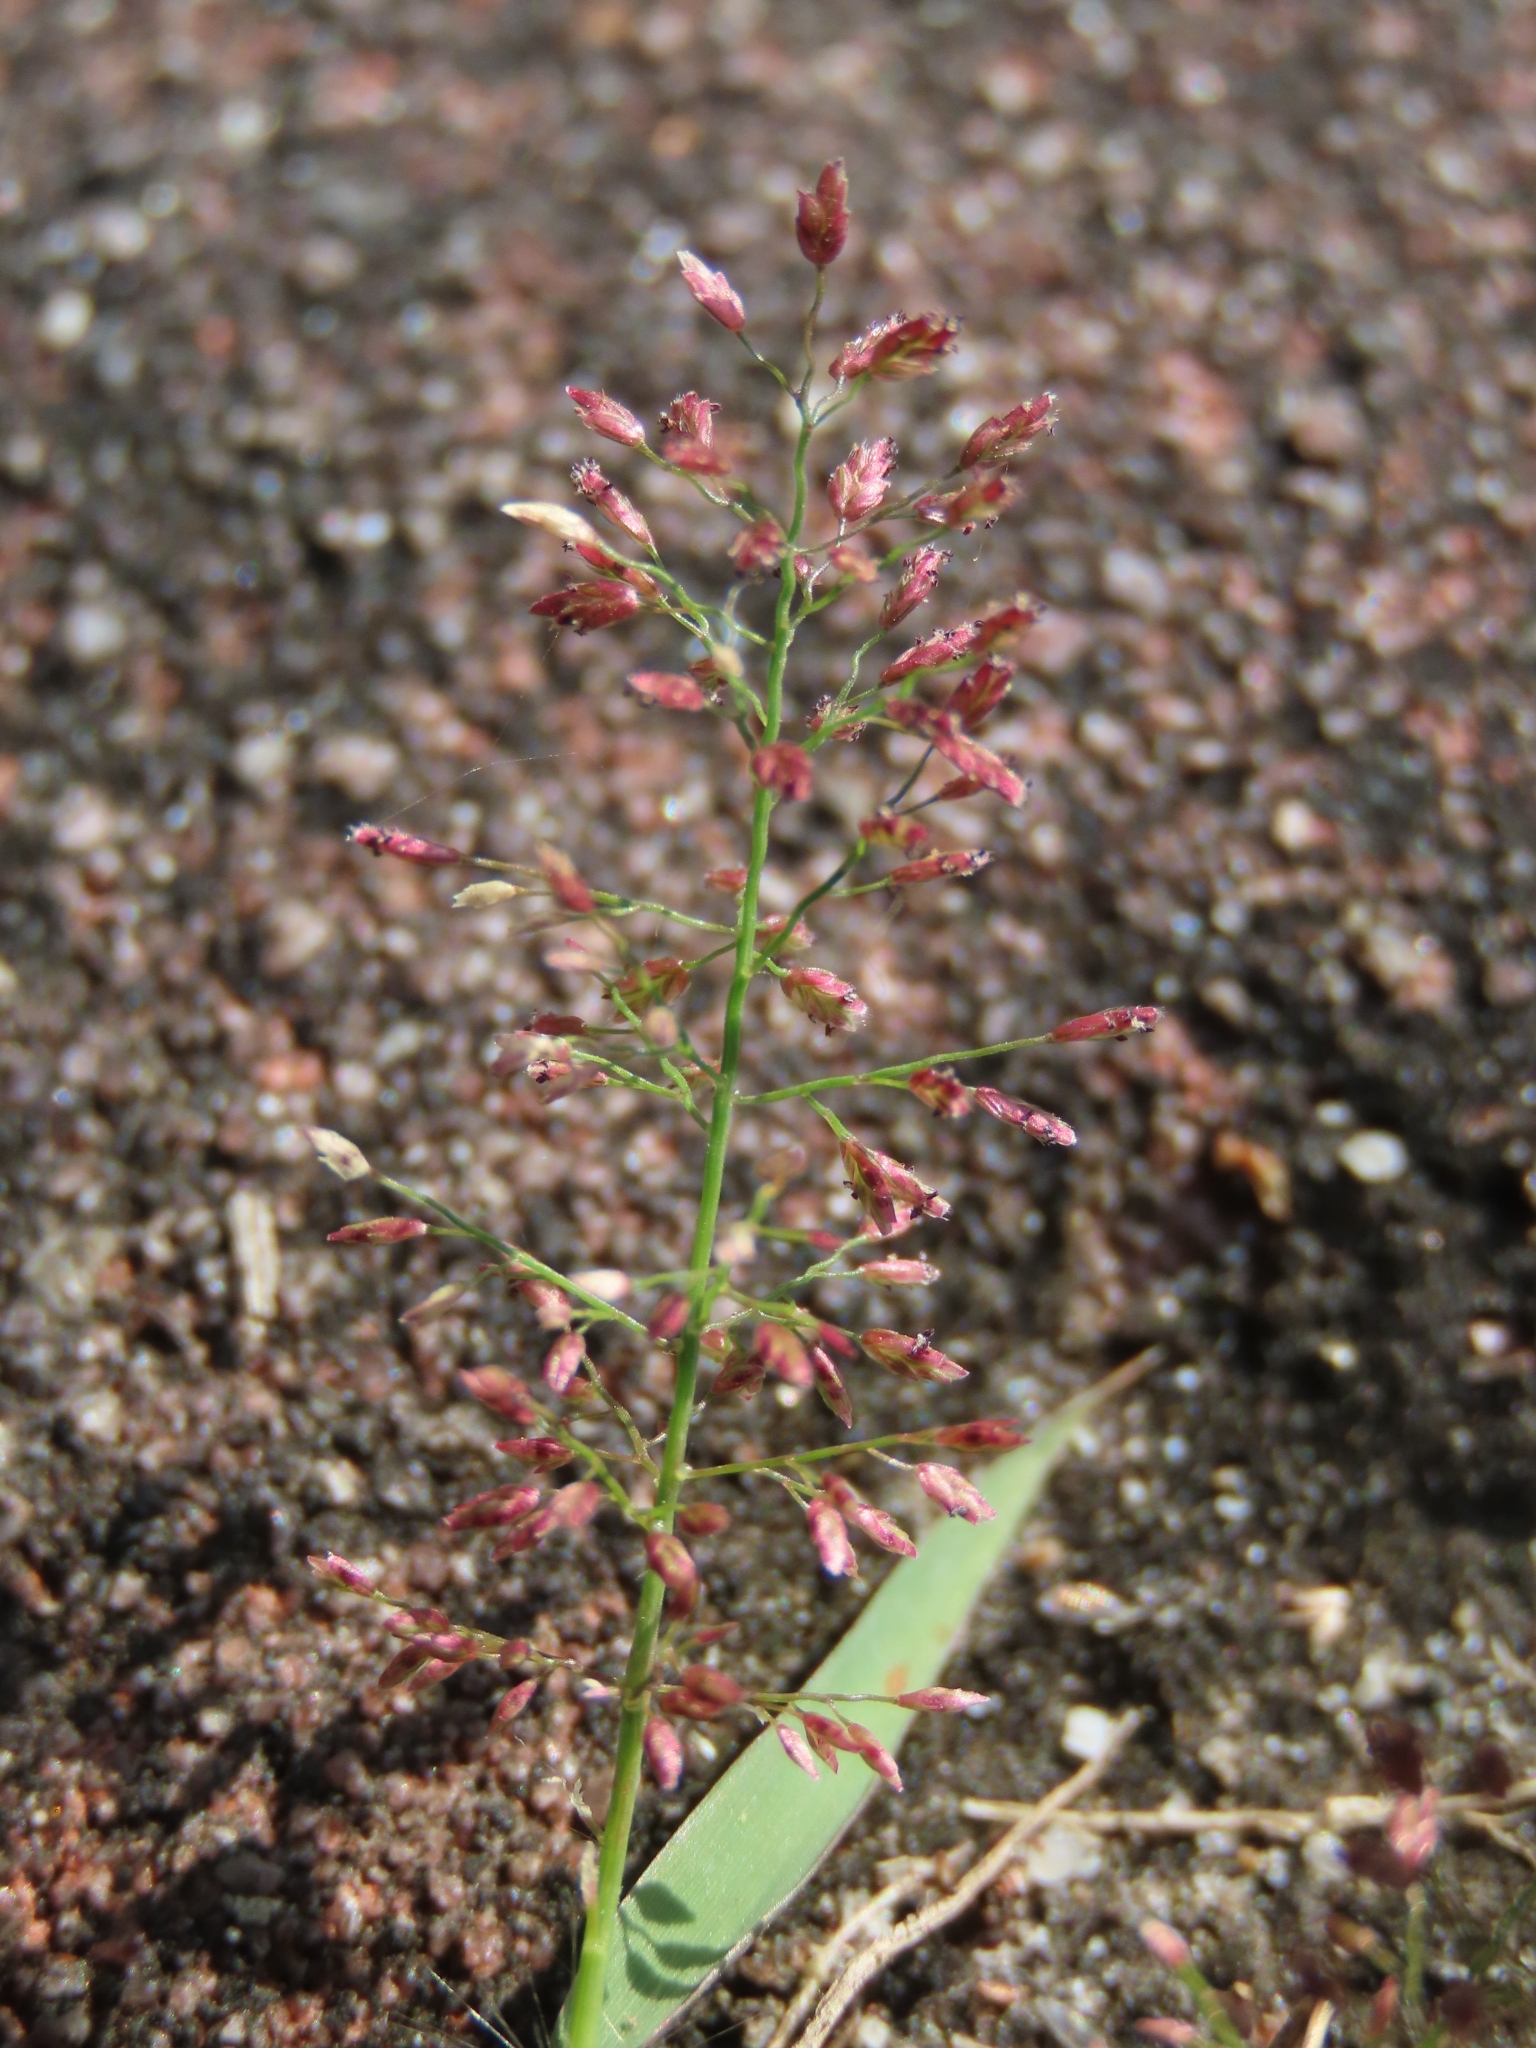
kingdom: Plantae
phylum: Tracheophyta
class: Liliopsida
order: Poales
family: Poaceae
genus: Eragrostis
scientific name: Eragrostis tenella
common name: Japanese lovegrass
